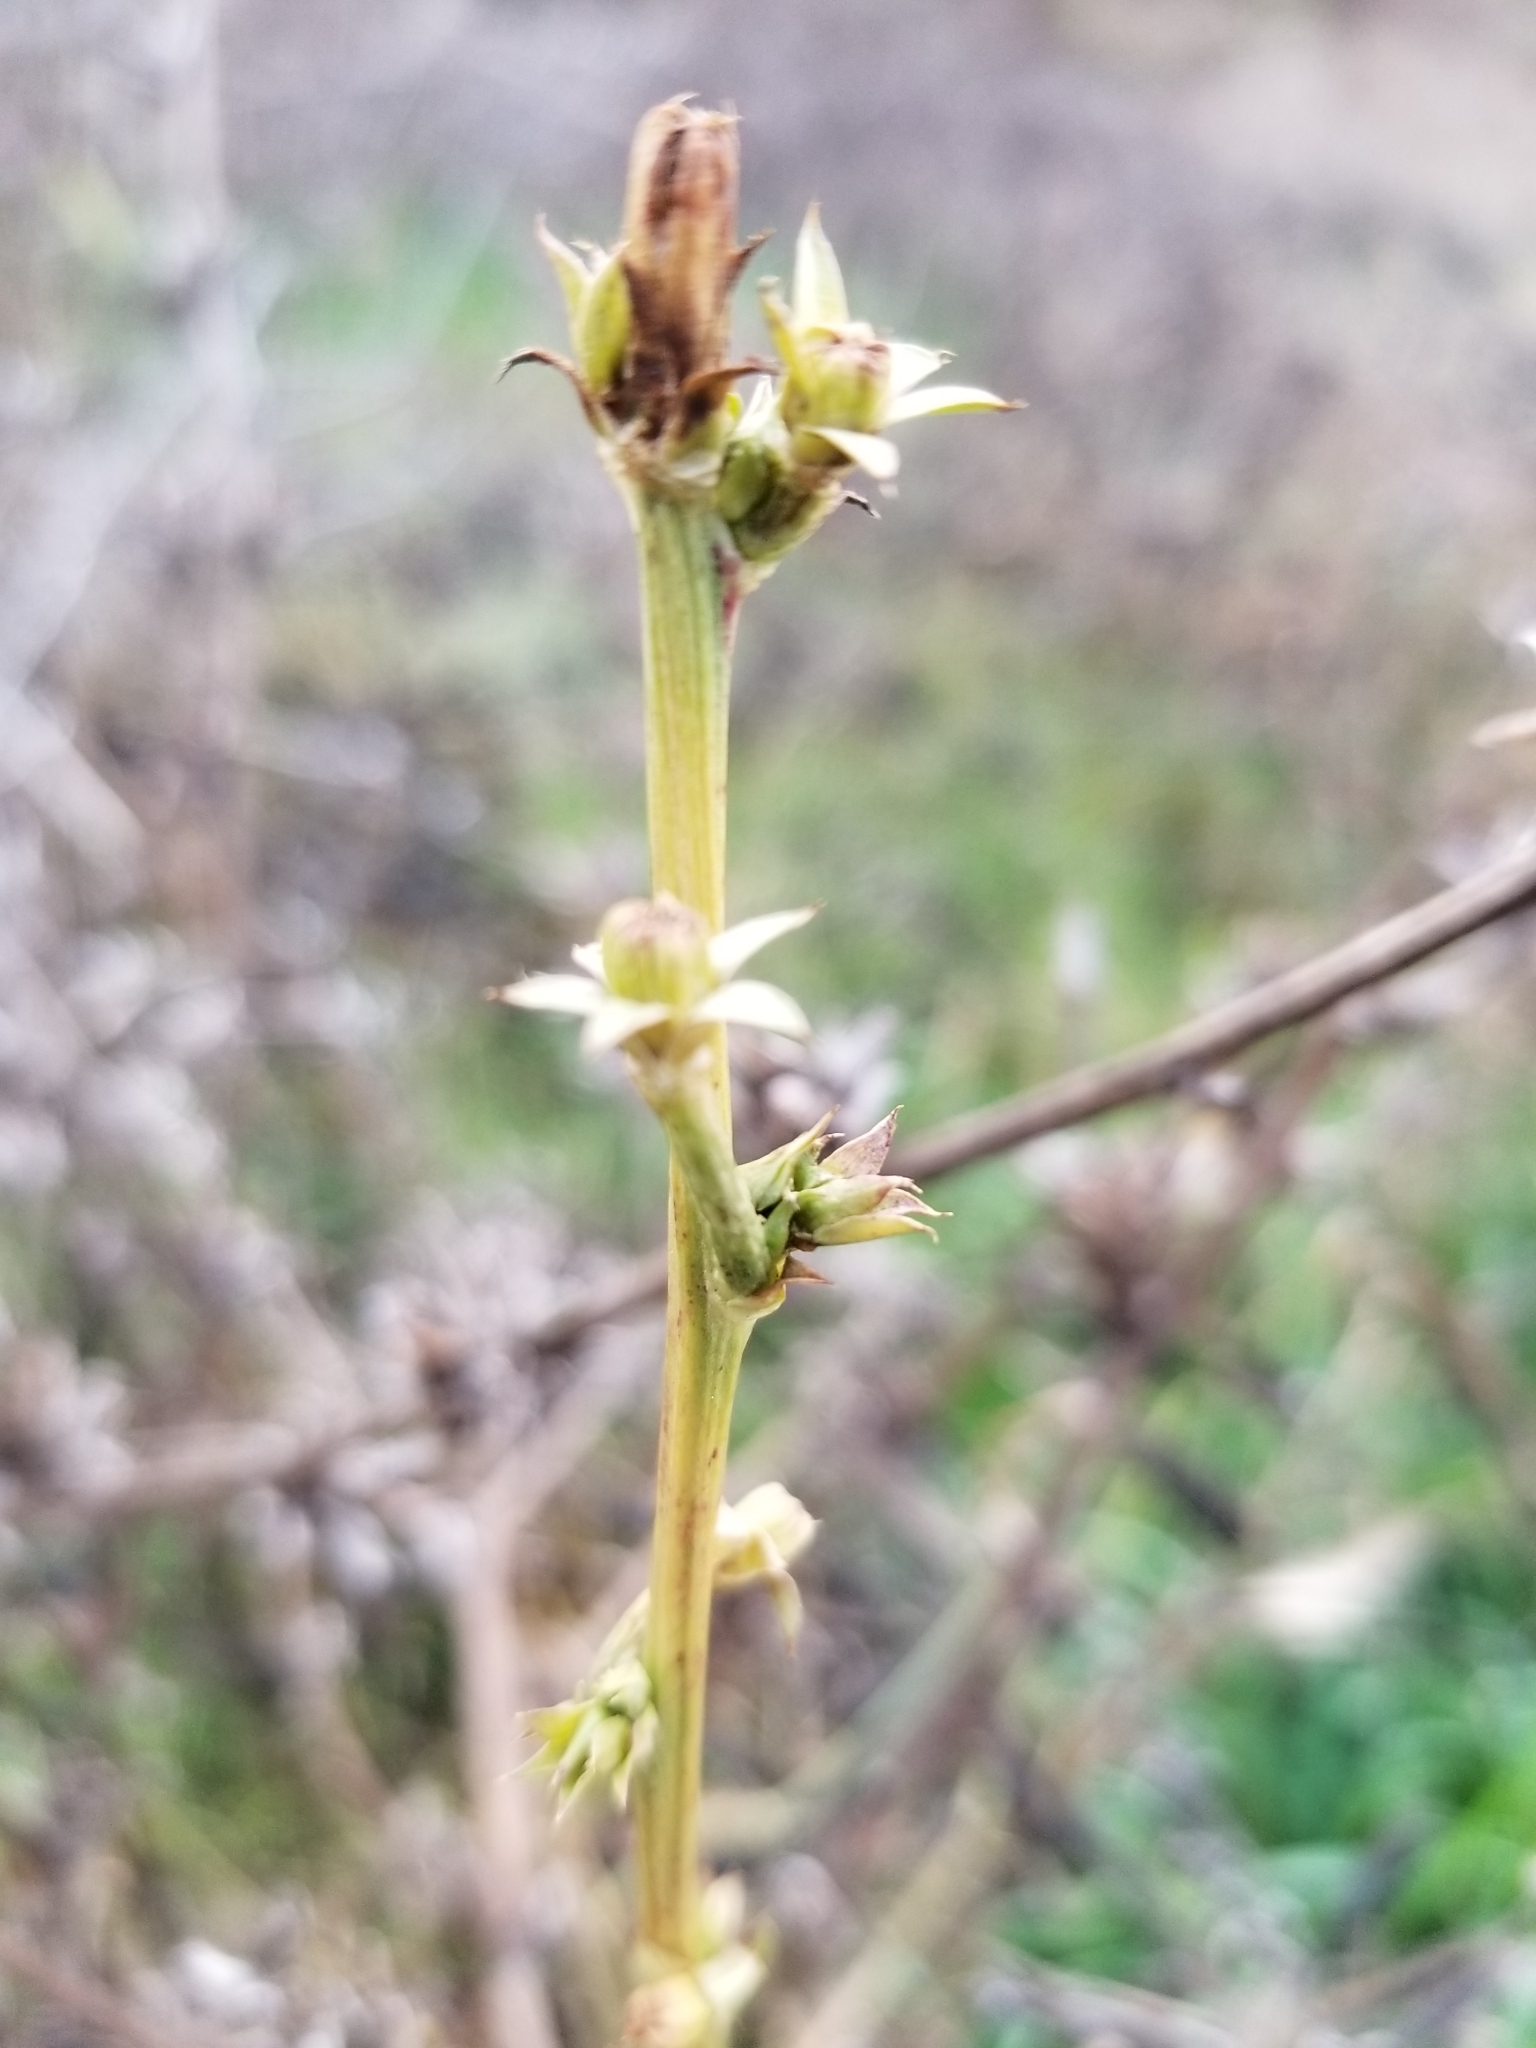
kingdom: Plantae
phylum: Tracheophyta
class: Magnoliopsida
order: Asterales
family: Asteraceae
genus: Cichorium
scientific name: Cichorium intybus
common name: Chicory
